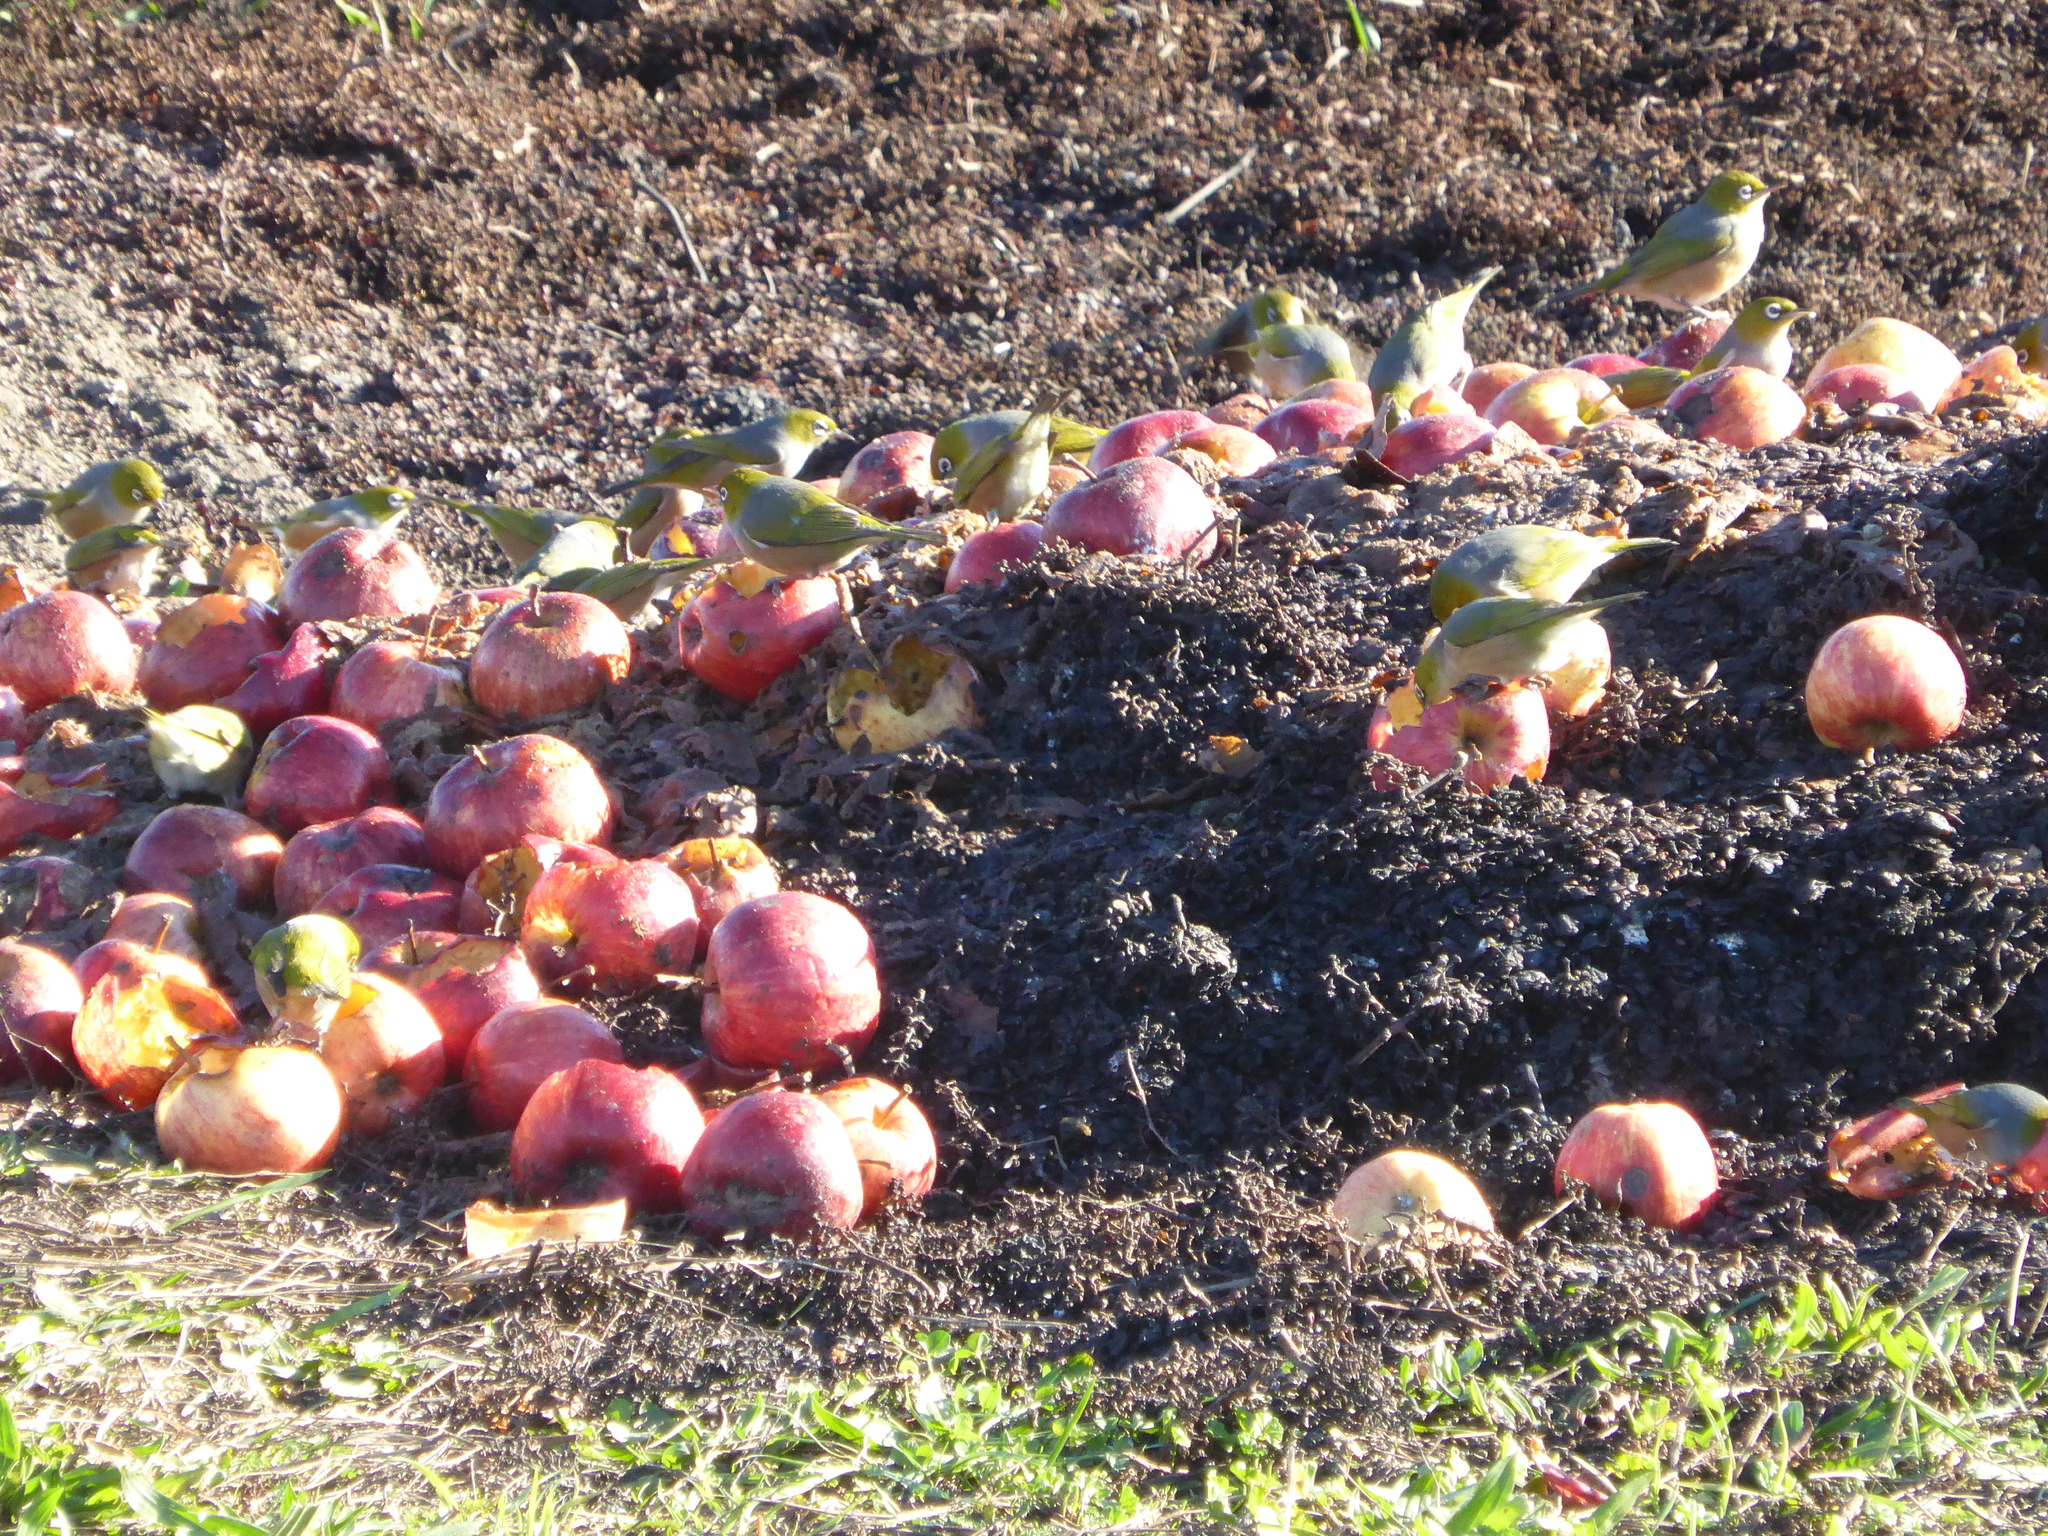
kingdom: Animalia
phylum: Chordata
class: Aves
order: Passeriformes
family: Zosteropidae
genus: Zosterops
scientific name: Zosterops lateralis
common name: Silvereye
